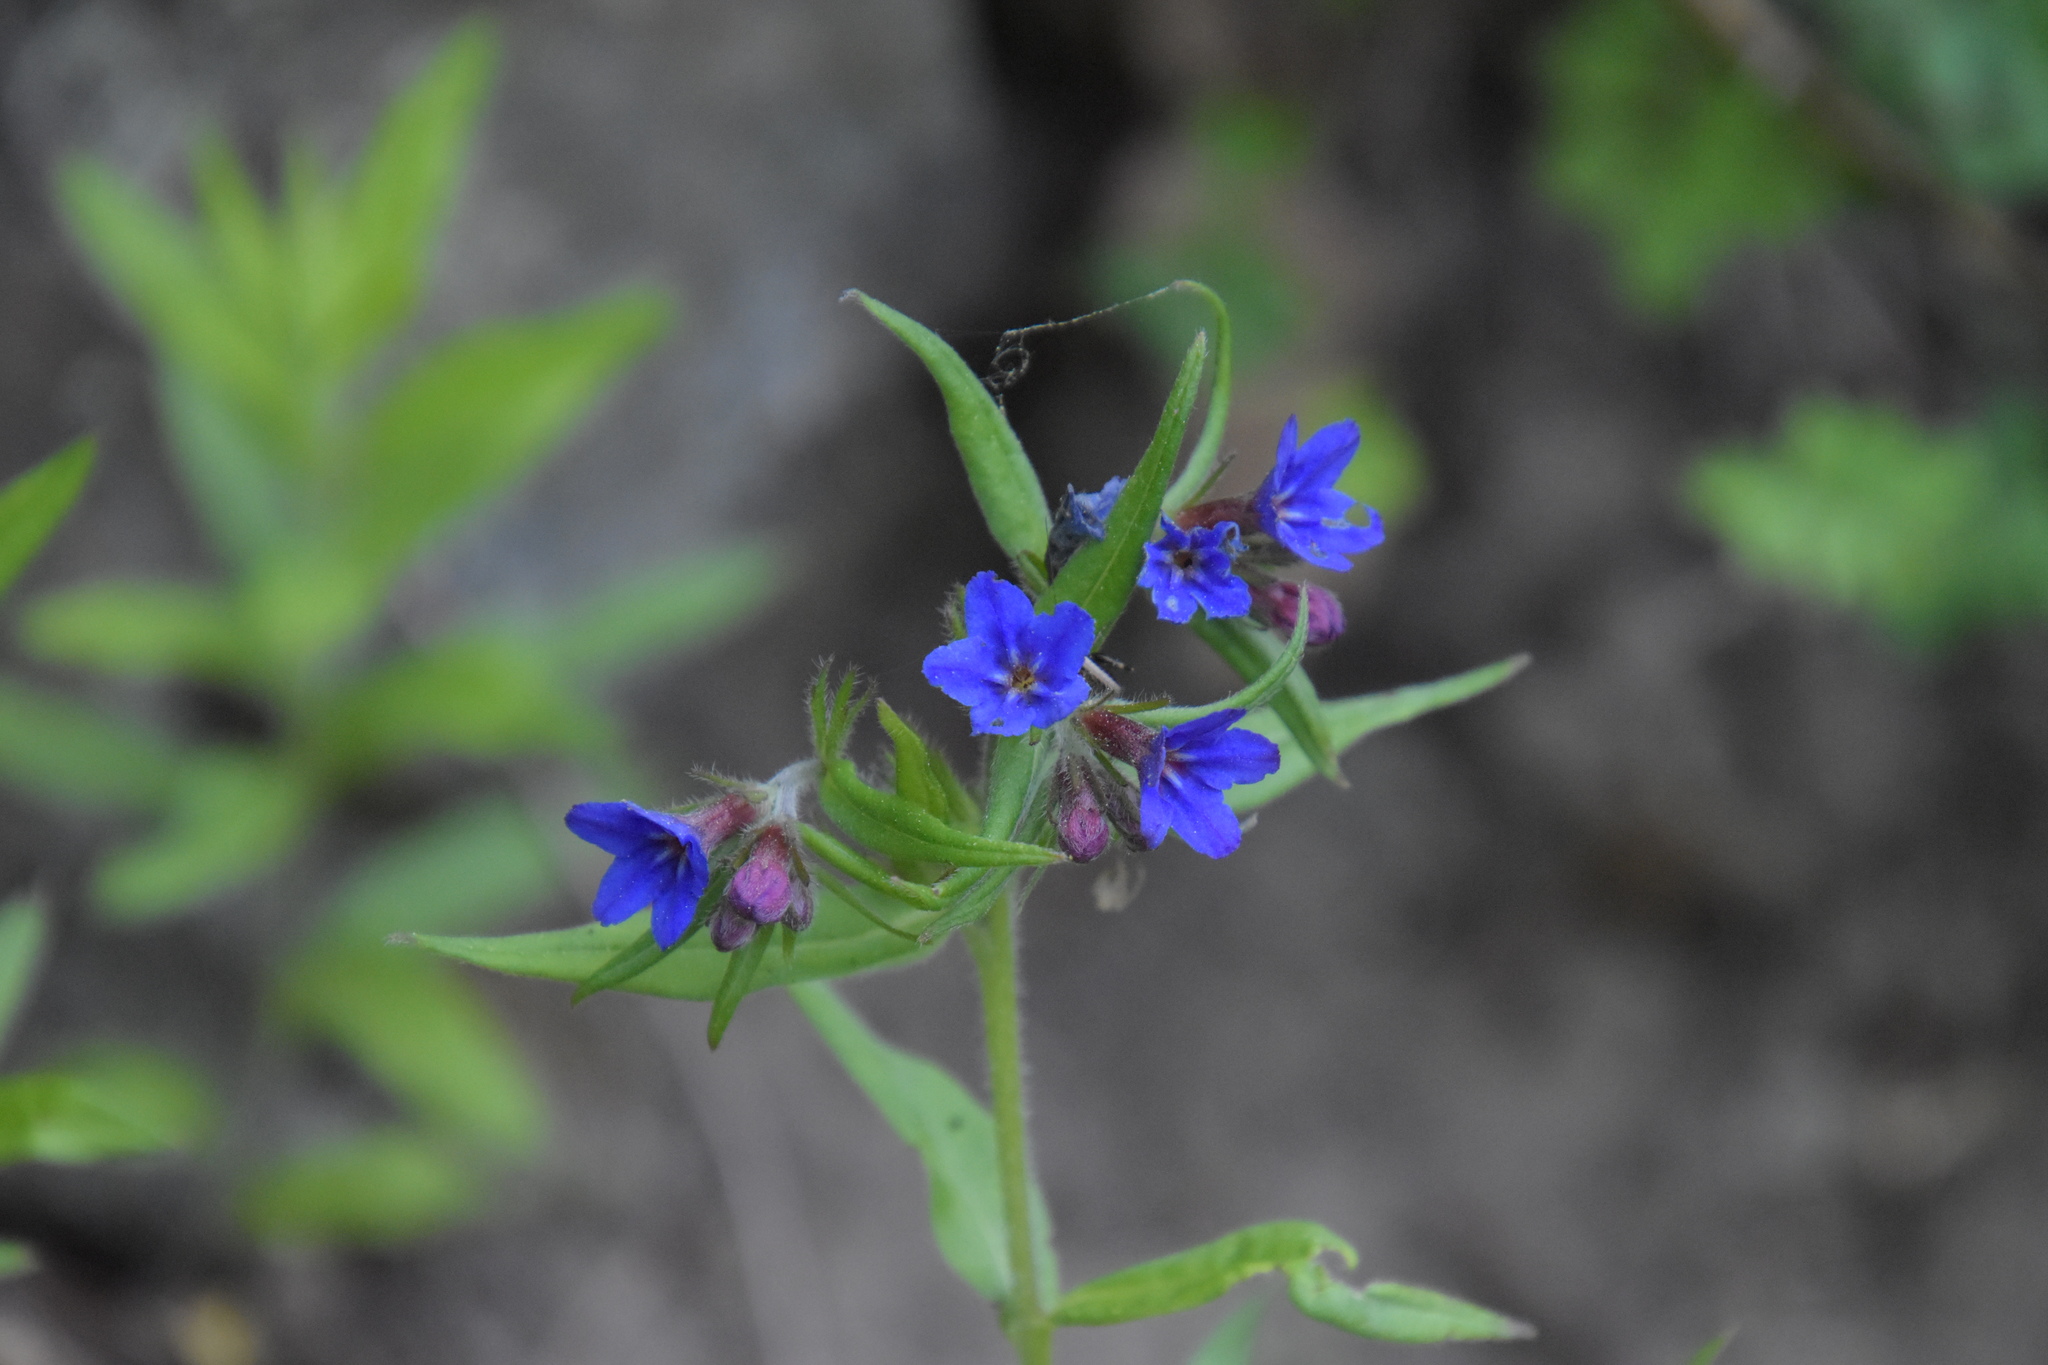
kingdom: Plantae
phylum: Tracheophyta
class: Magnoliopsida
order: Boraginales
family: Boraginaceae
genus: Aegonychon
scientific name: Aegonychon purpurocaeruleum
